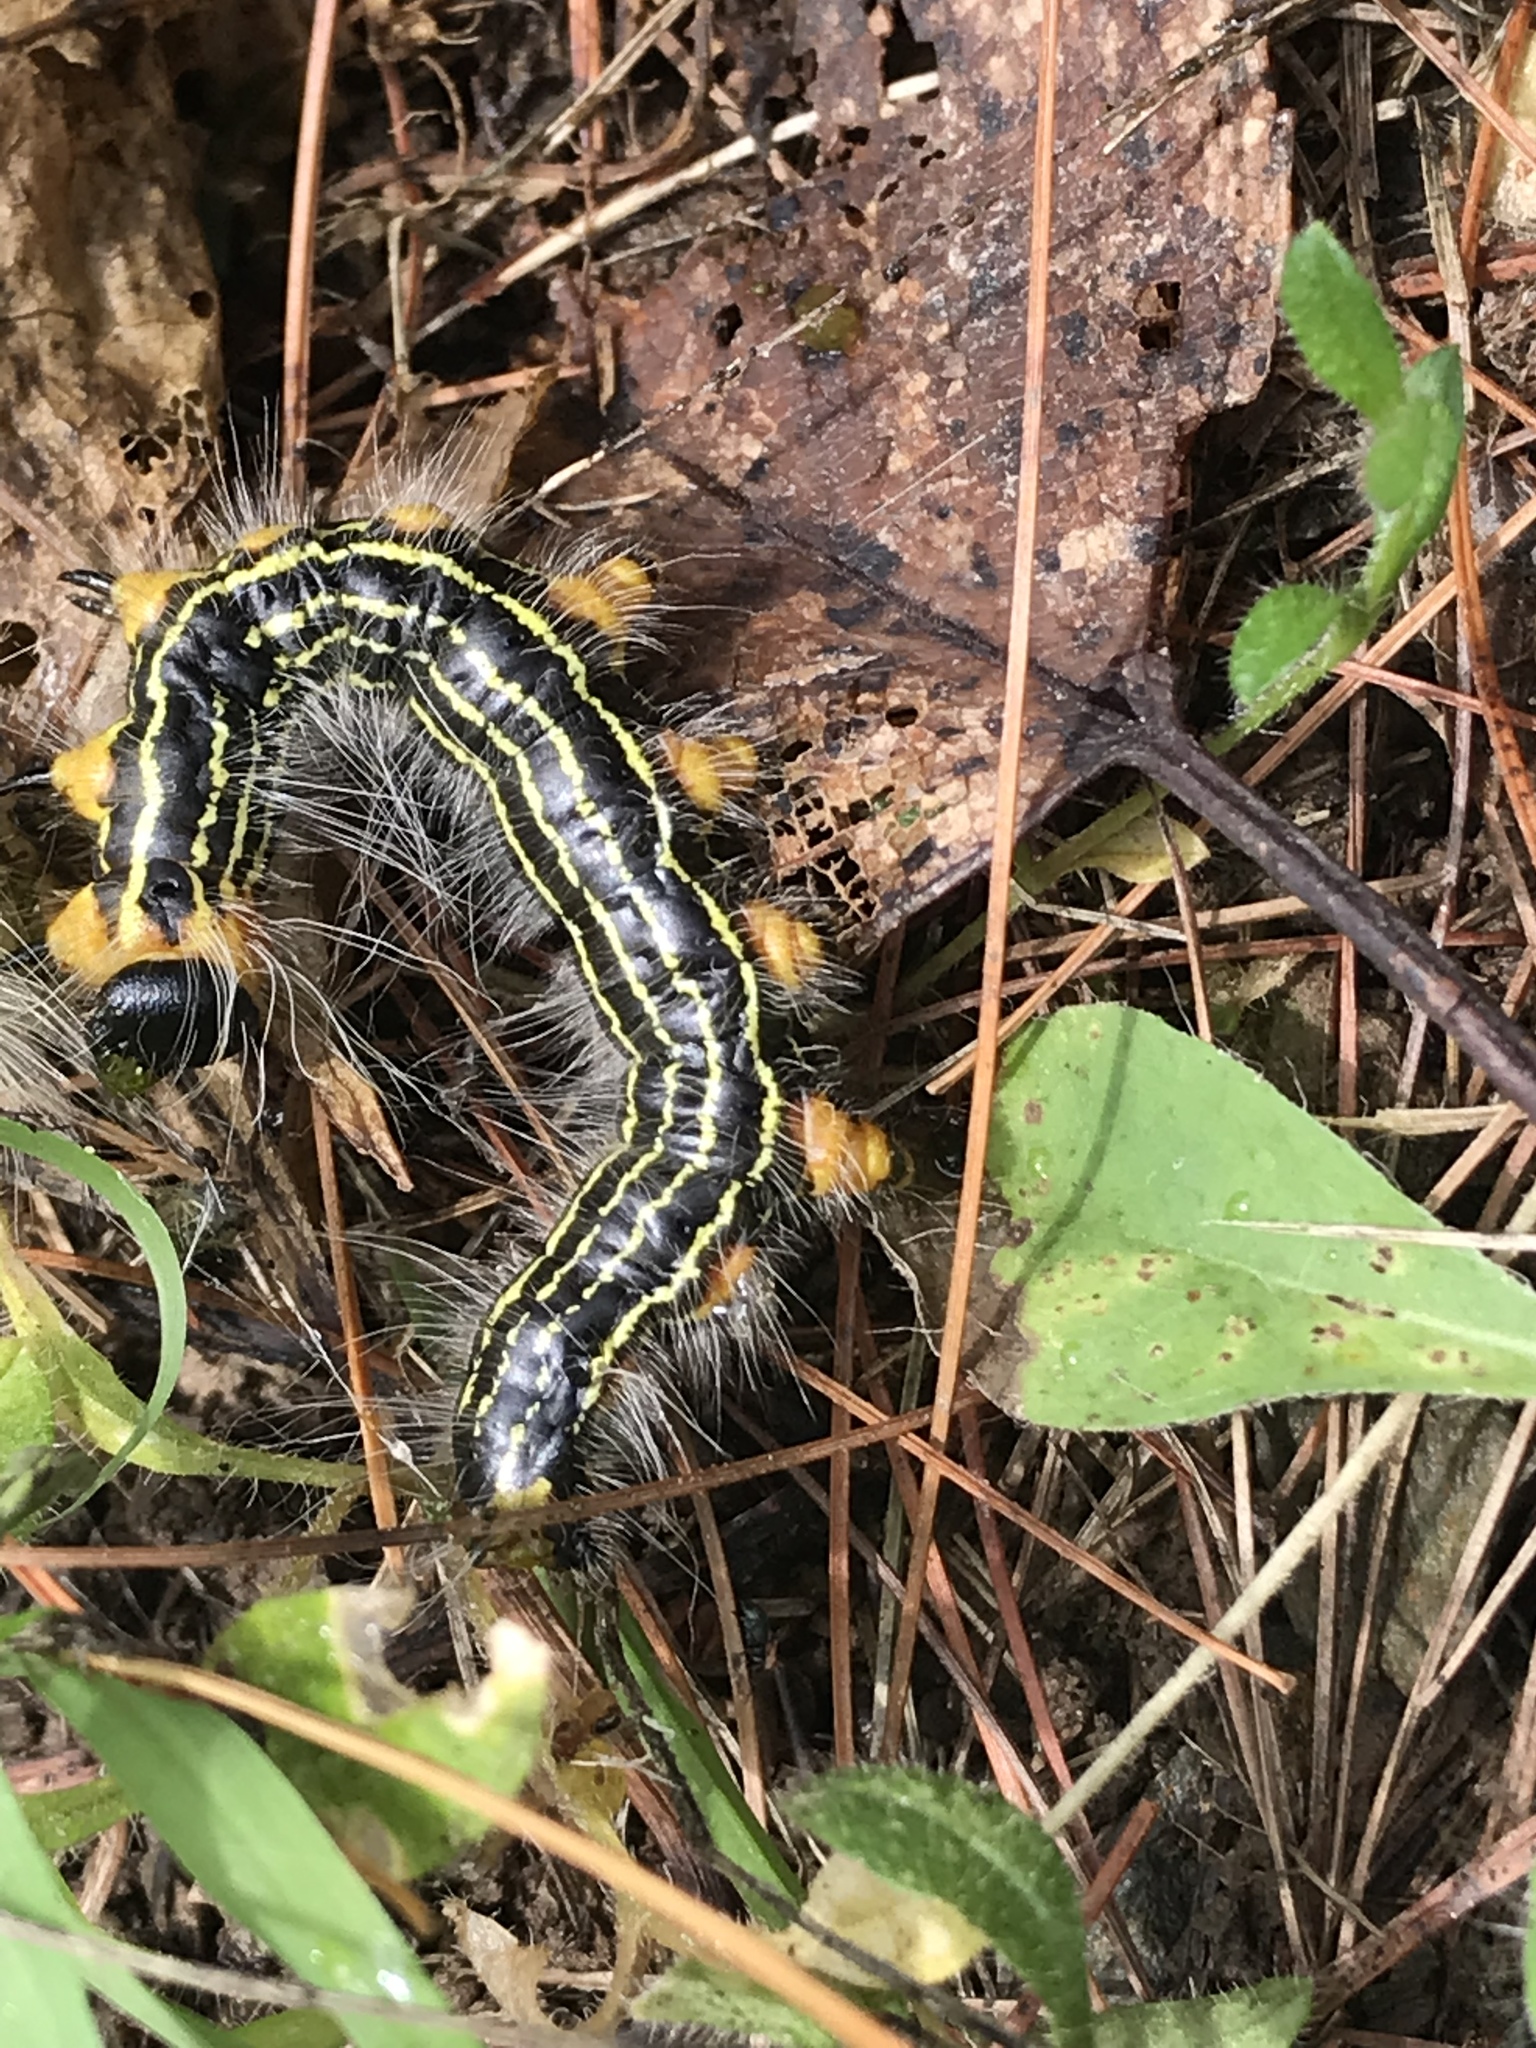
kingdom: Animalia
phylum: Arthropoda
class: Insecta
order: Lepidoptera
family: Notodontidae
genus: Datana
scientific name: Datana ministra
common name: Yellow-necked caterpillar moth
